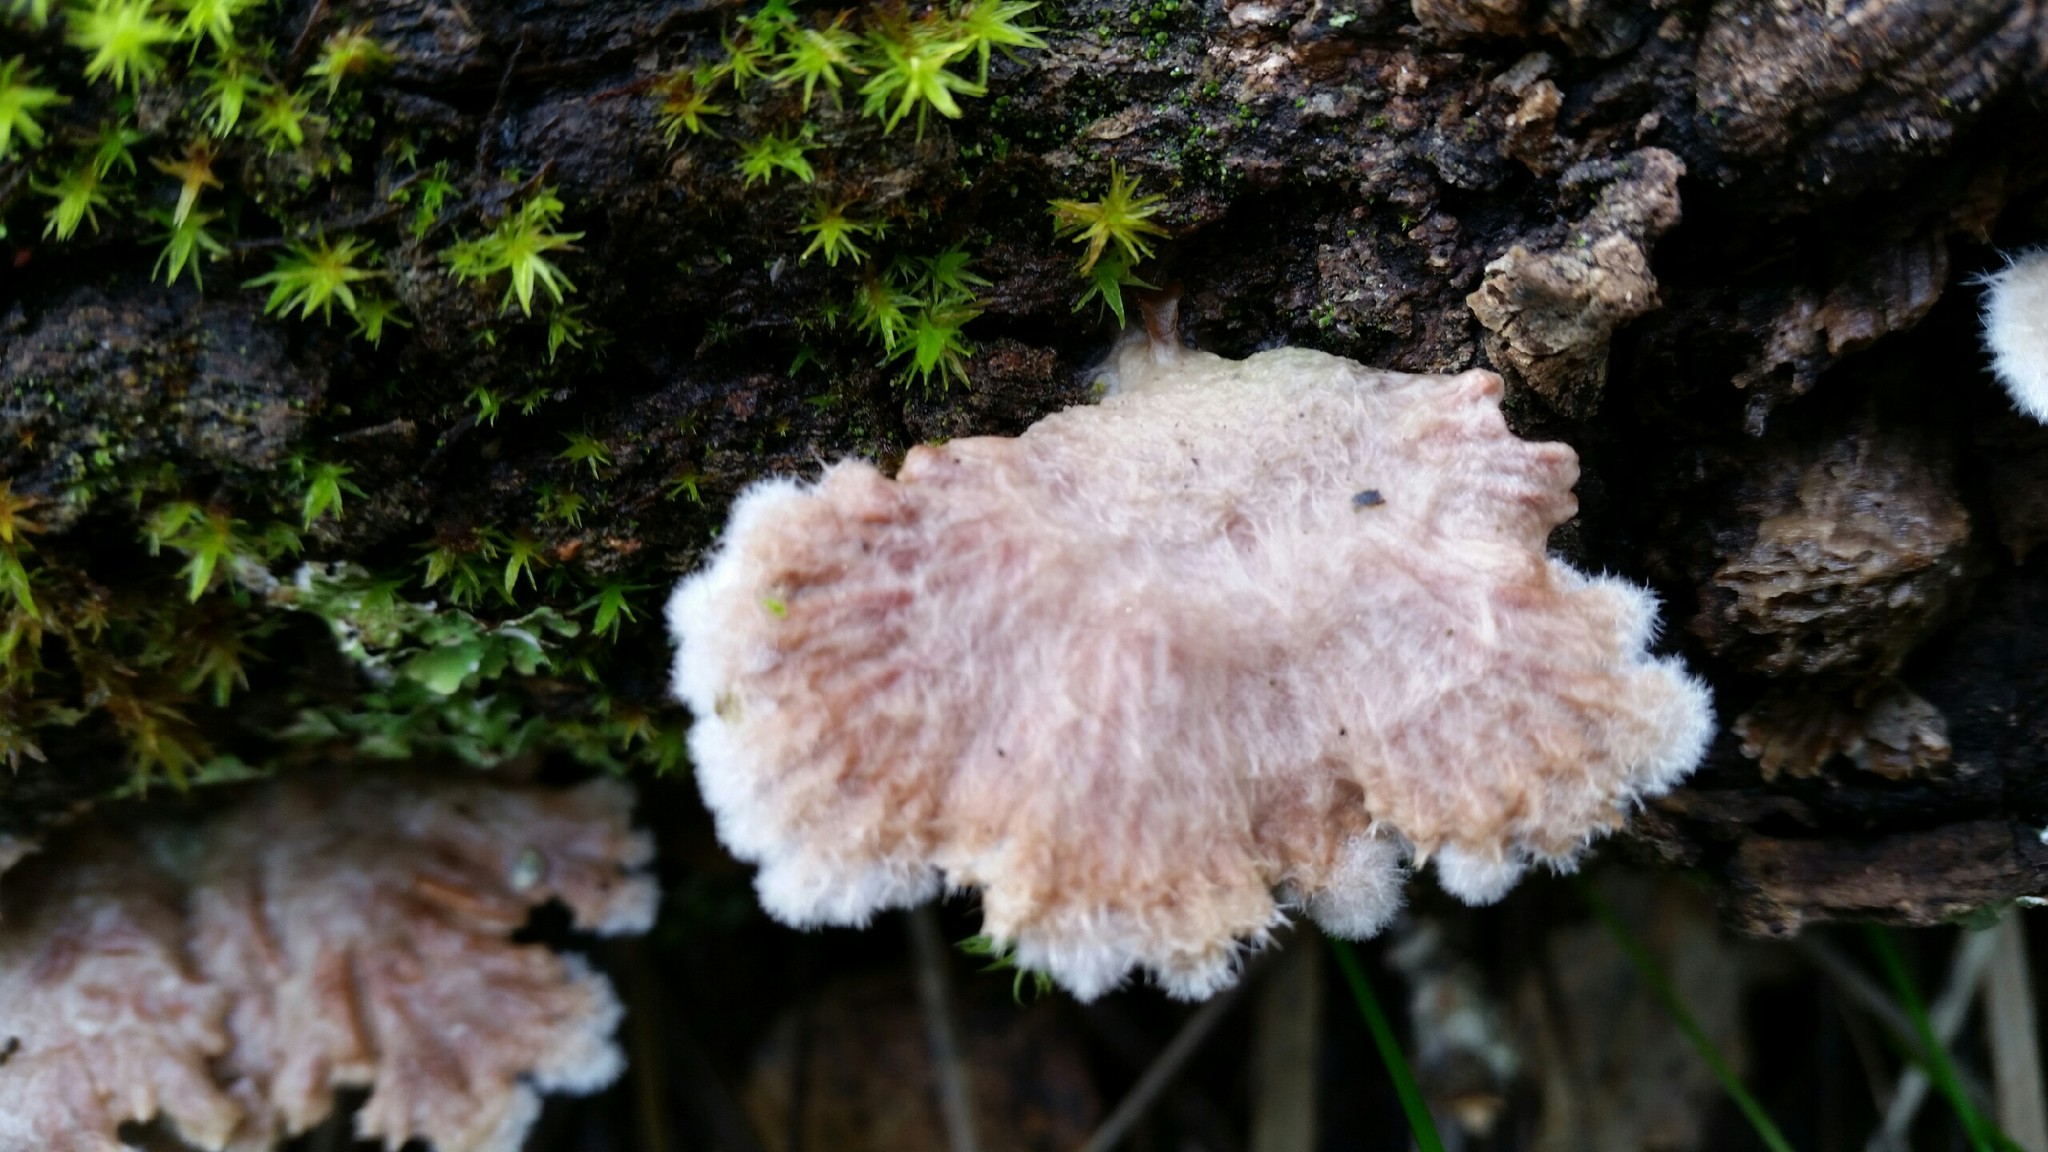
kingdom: Fungi
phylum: Basidiomycota
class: Agaricomycetes
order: Agaricales
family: Schizophyllaceae
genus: Schizophyllum
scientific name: Schizophyllum commune
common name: Common porecrust
